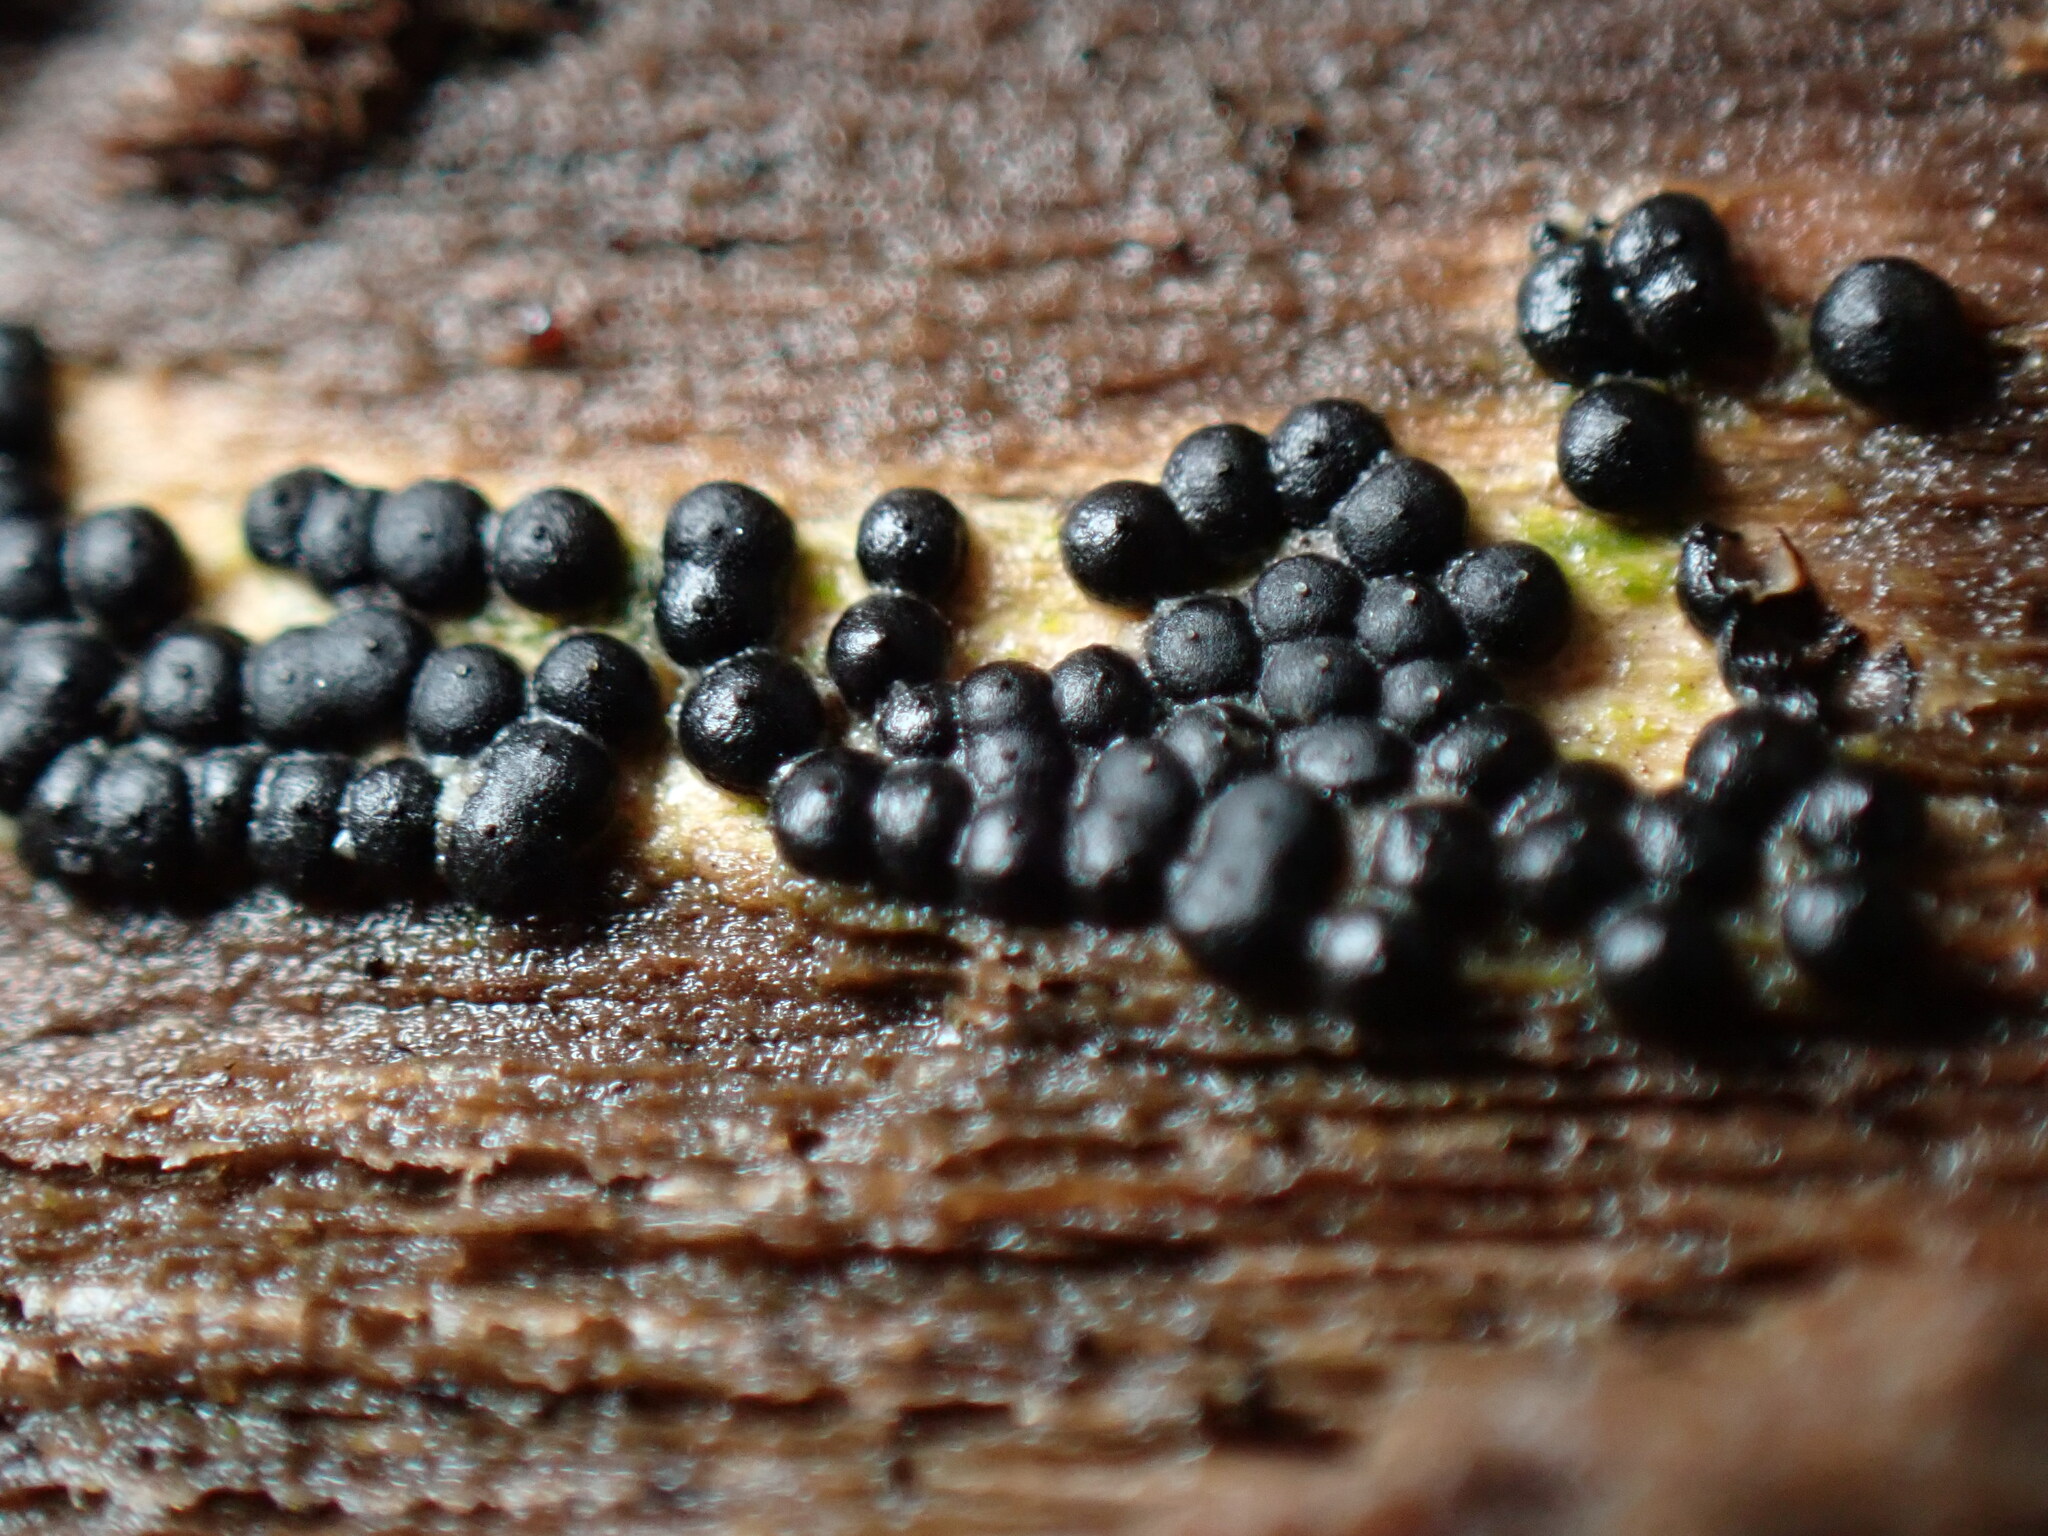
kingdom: Fungi
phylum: Ascomycota
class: Sordariomycetes
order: Xylariales
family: Xylariaceae
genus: Rosellinia
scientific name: Rosellinia subiculata
